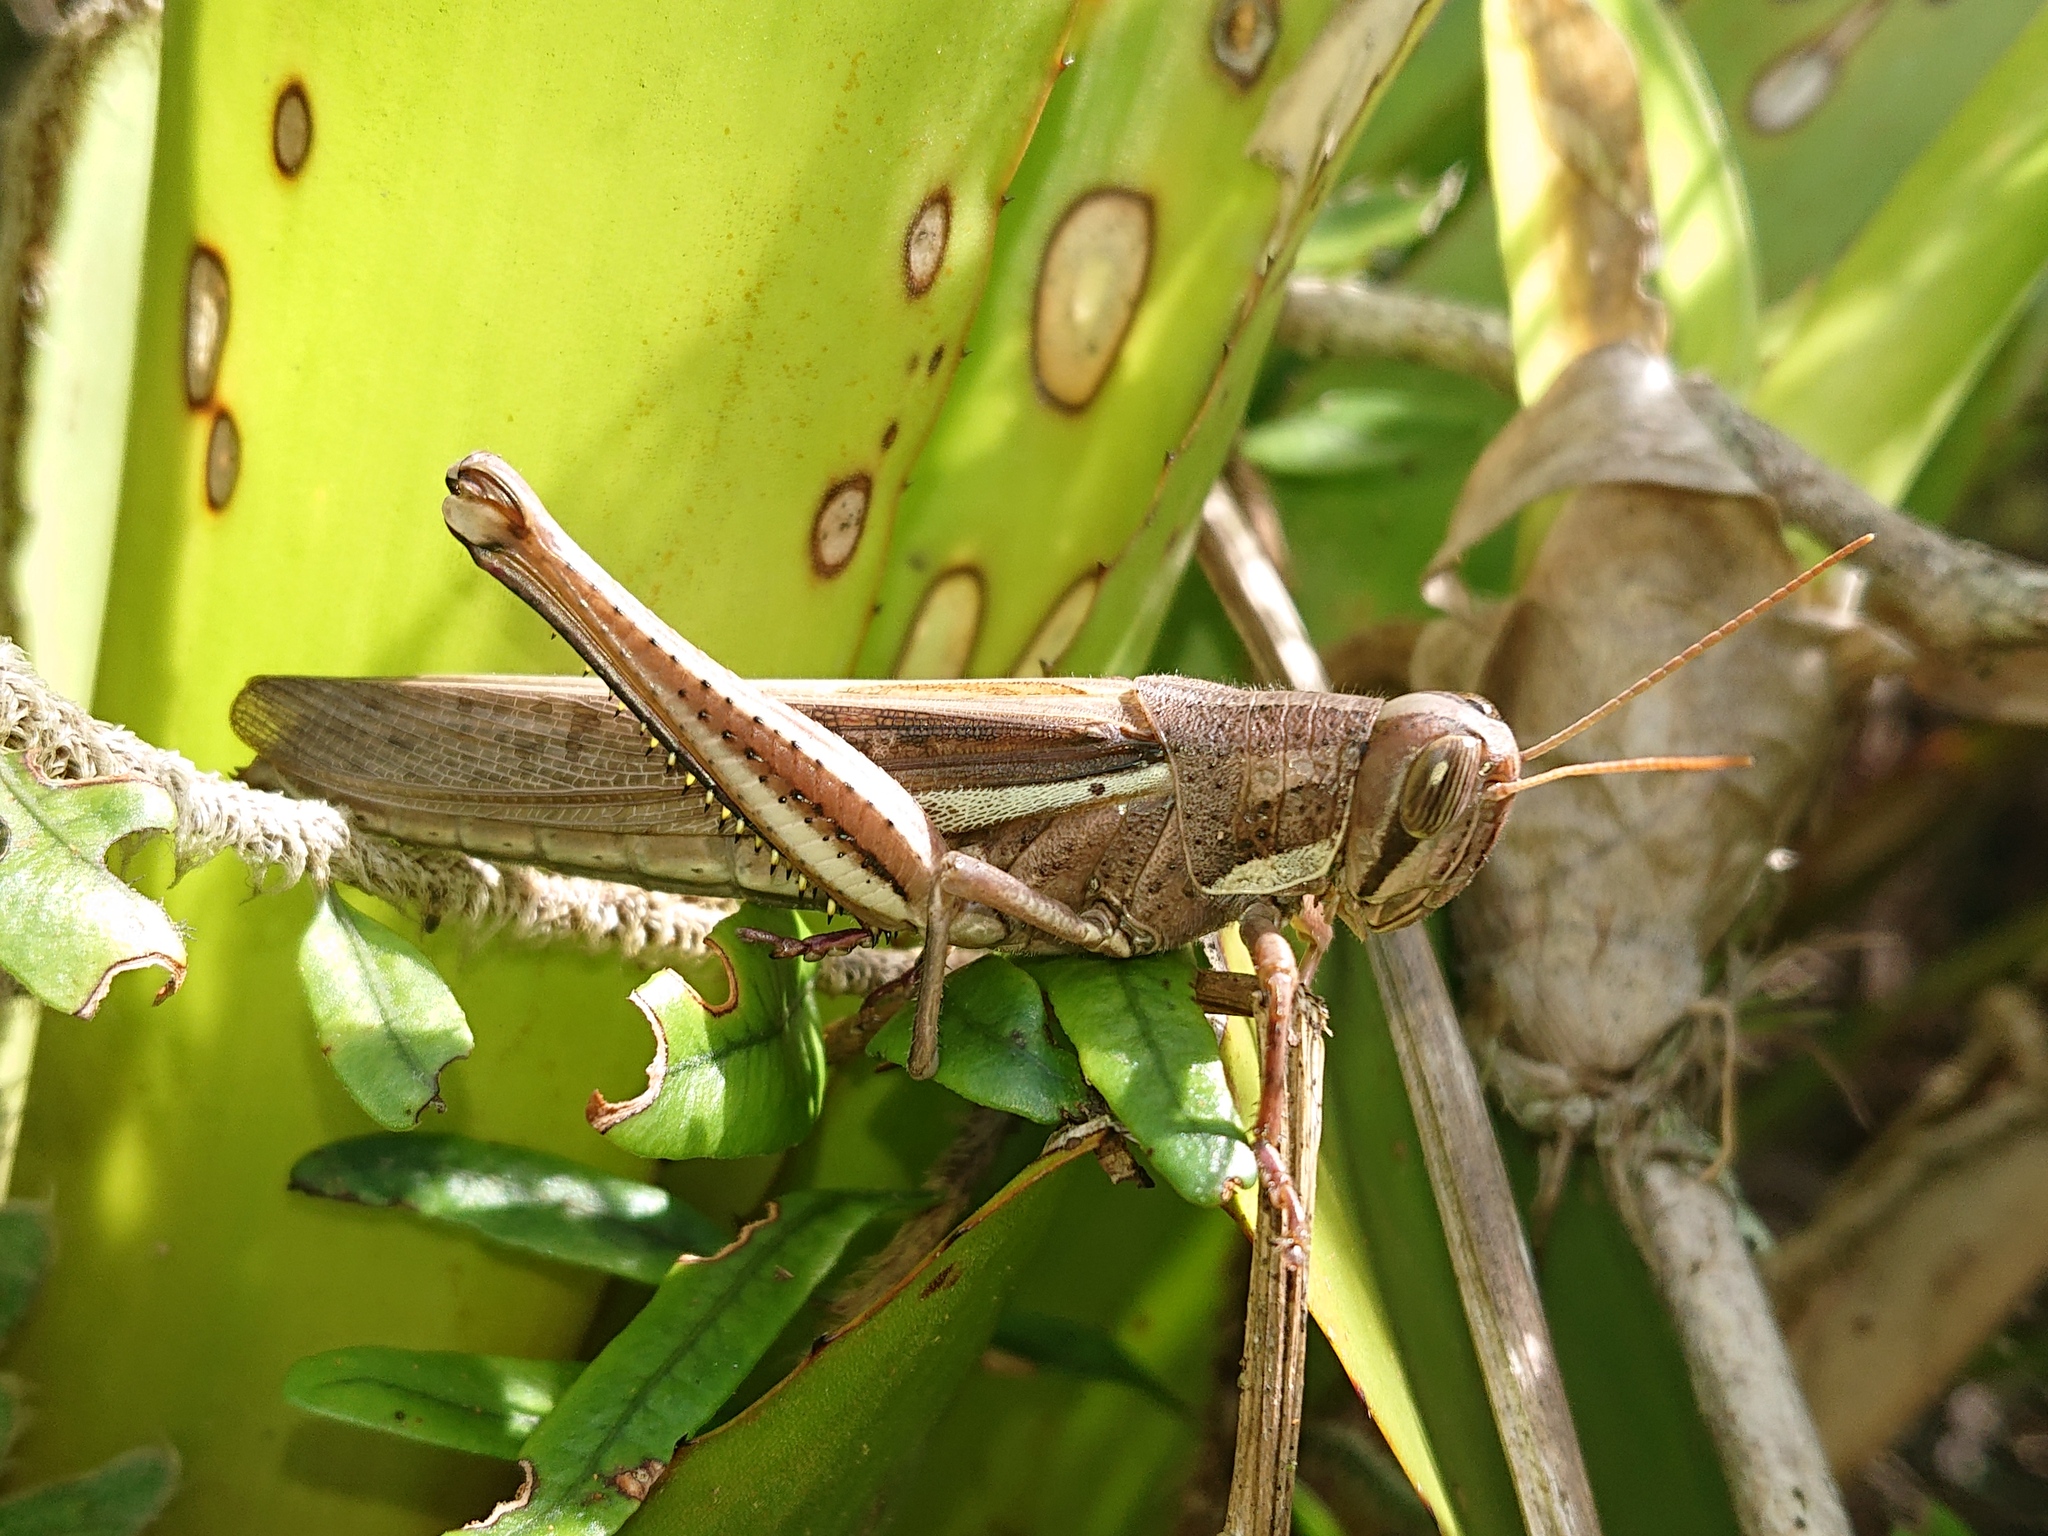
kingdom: Animalia
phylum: Arthropoda
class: Insecta
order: Orthoptera
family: Acrididae
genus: Schistocerca
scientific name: Schistocerca pallens
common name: Bird grasshopper
